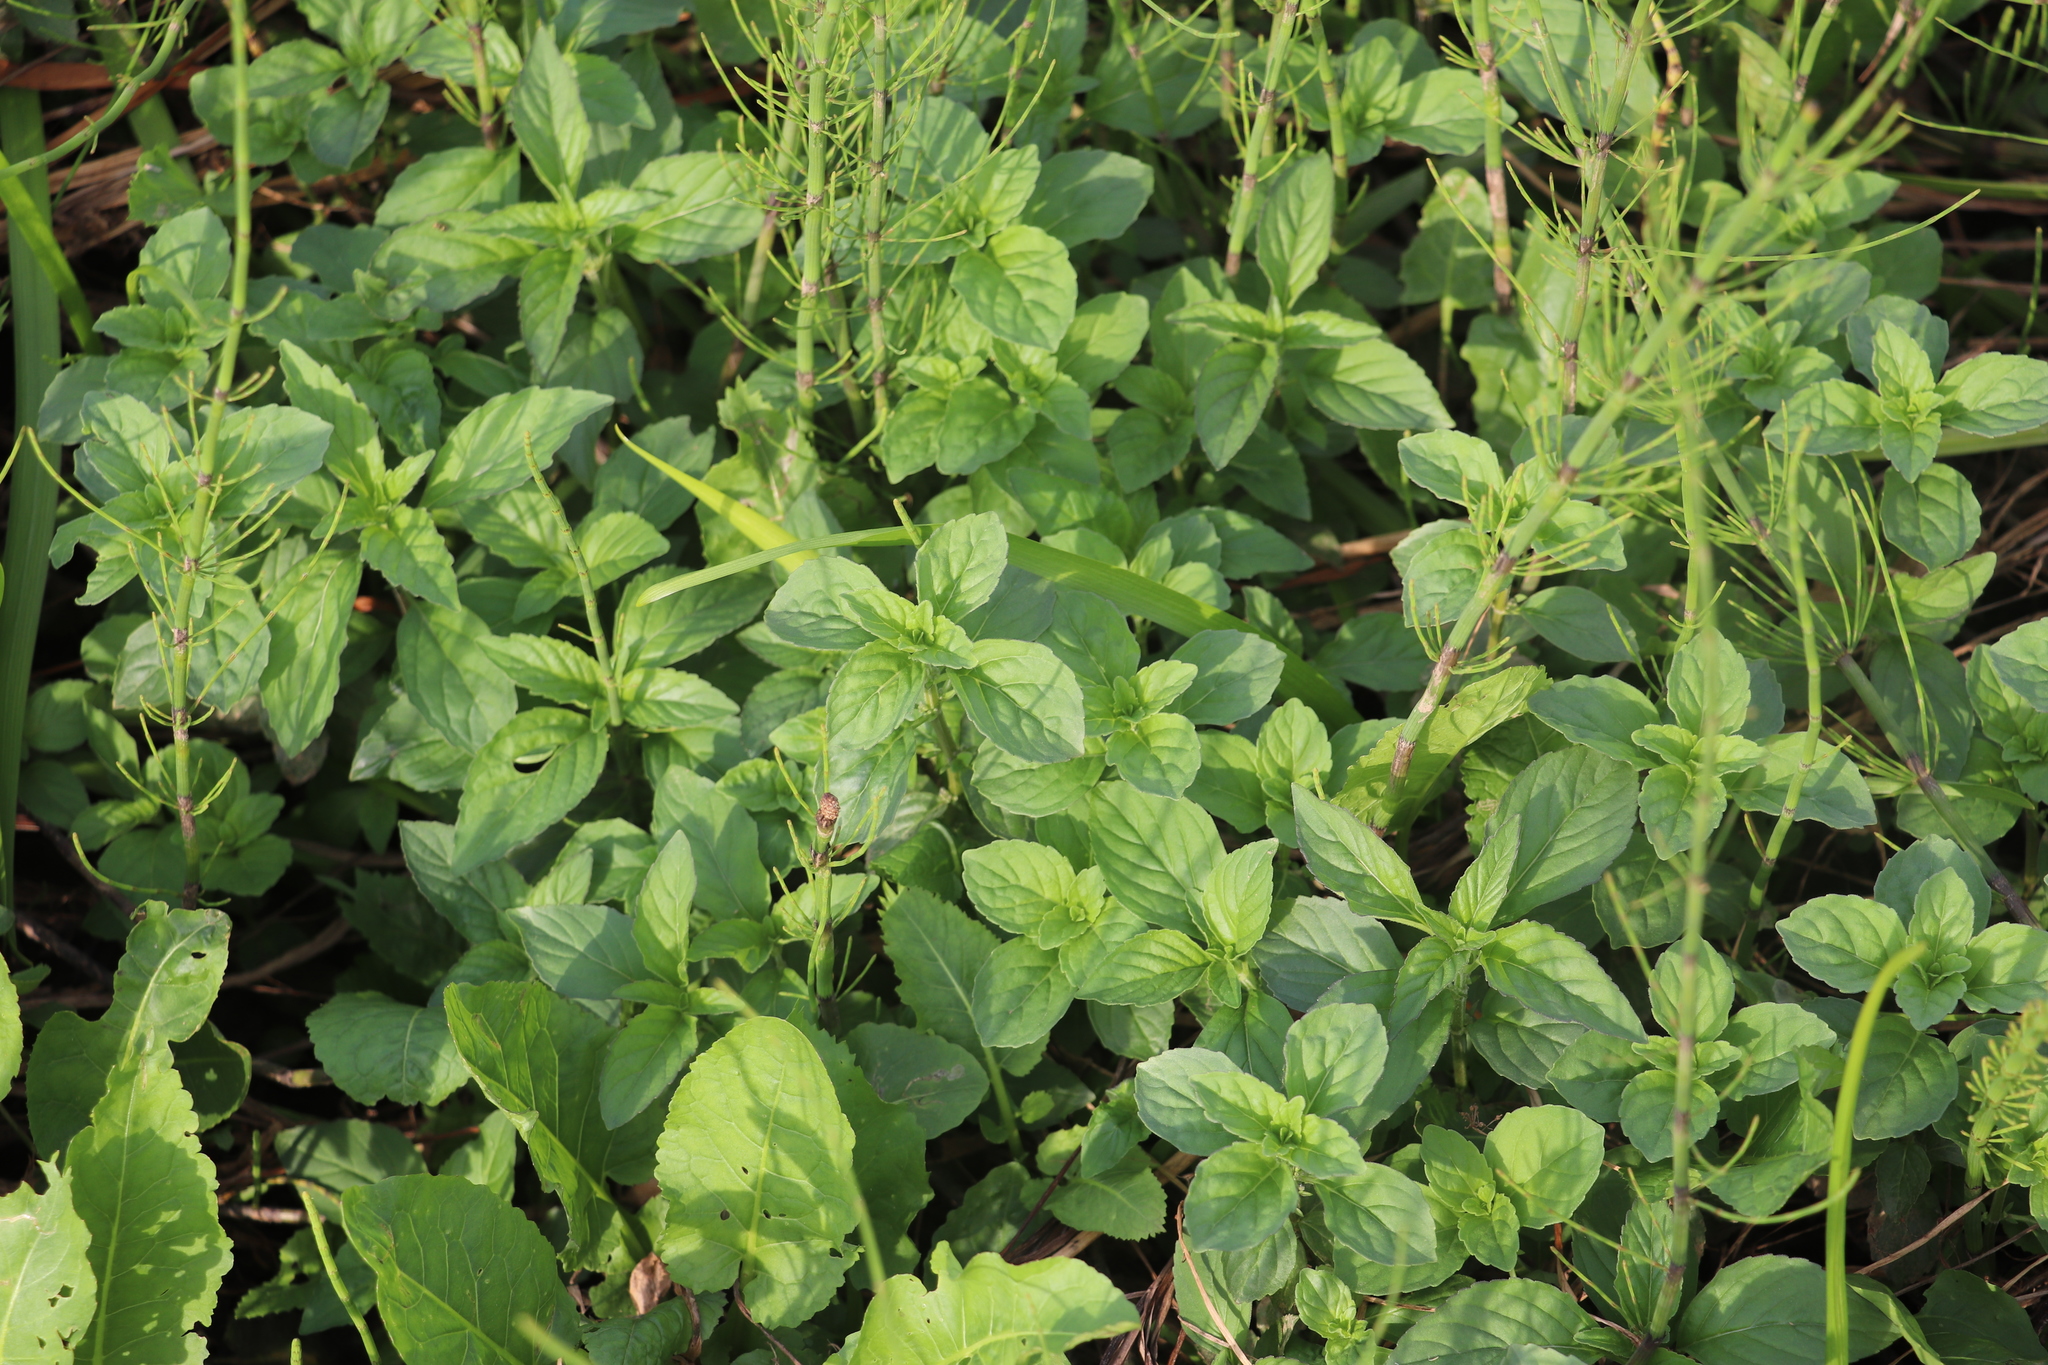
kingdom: Plantae
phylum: Tracheophyta
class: Magnoliopsida
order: Lamiales
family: Lamiaceae
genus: Mentha
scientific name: Mentha arvensis
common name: Corn mint
